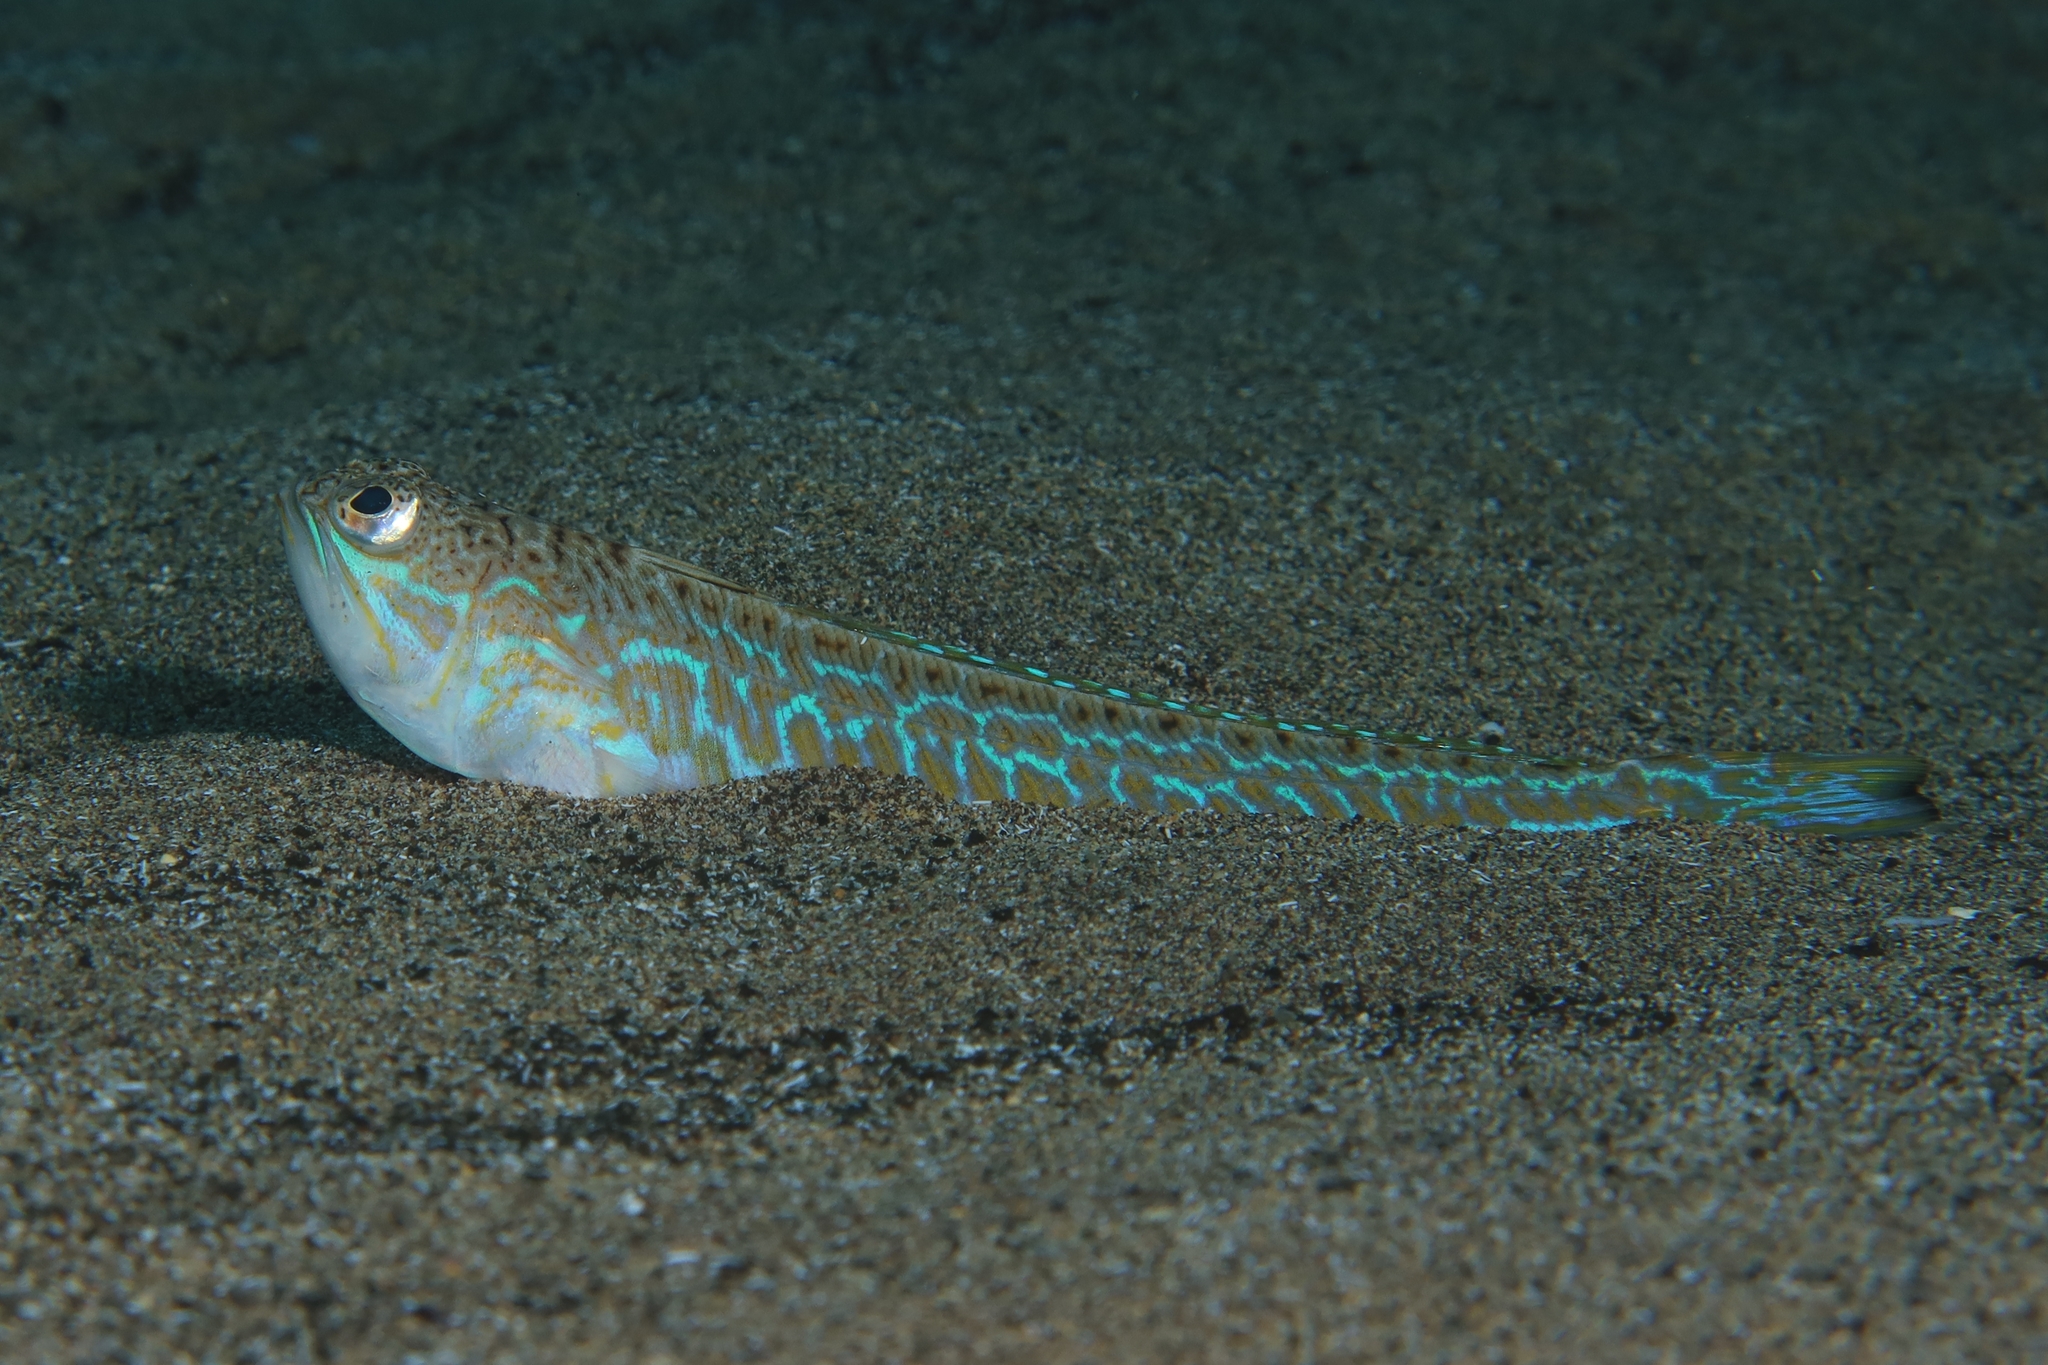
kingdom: Animalia
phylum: Chordata
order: Perciformes
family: Trachinidae
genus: Trachinus
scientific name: Trachinus draco
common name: Greater weever
